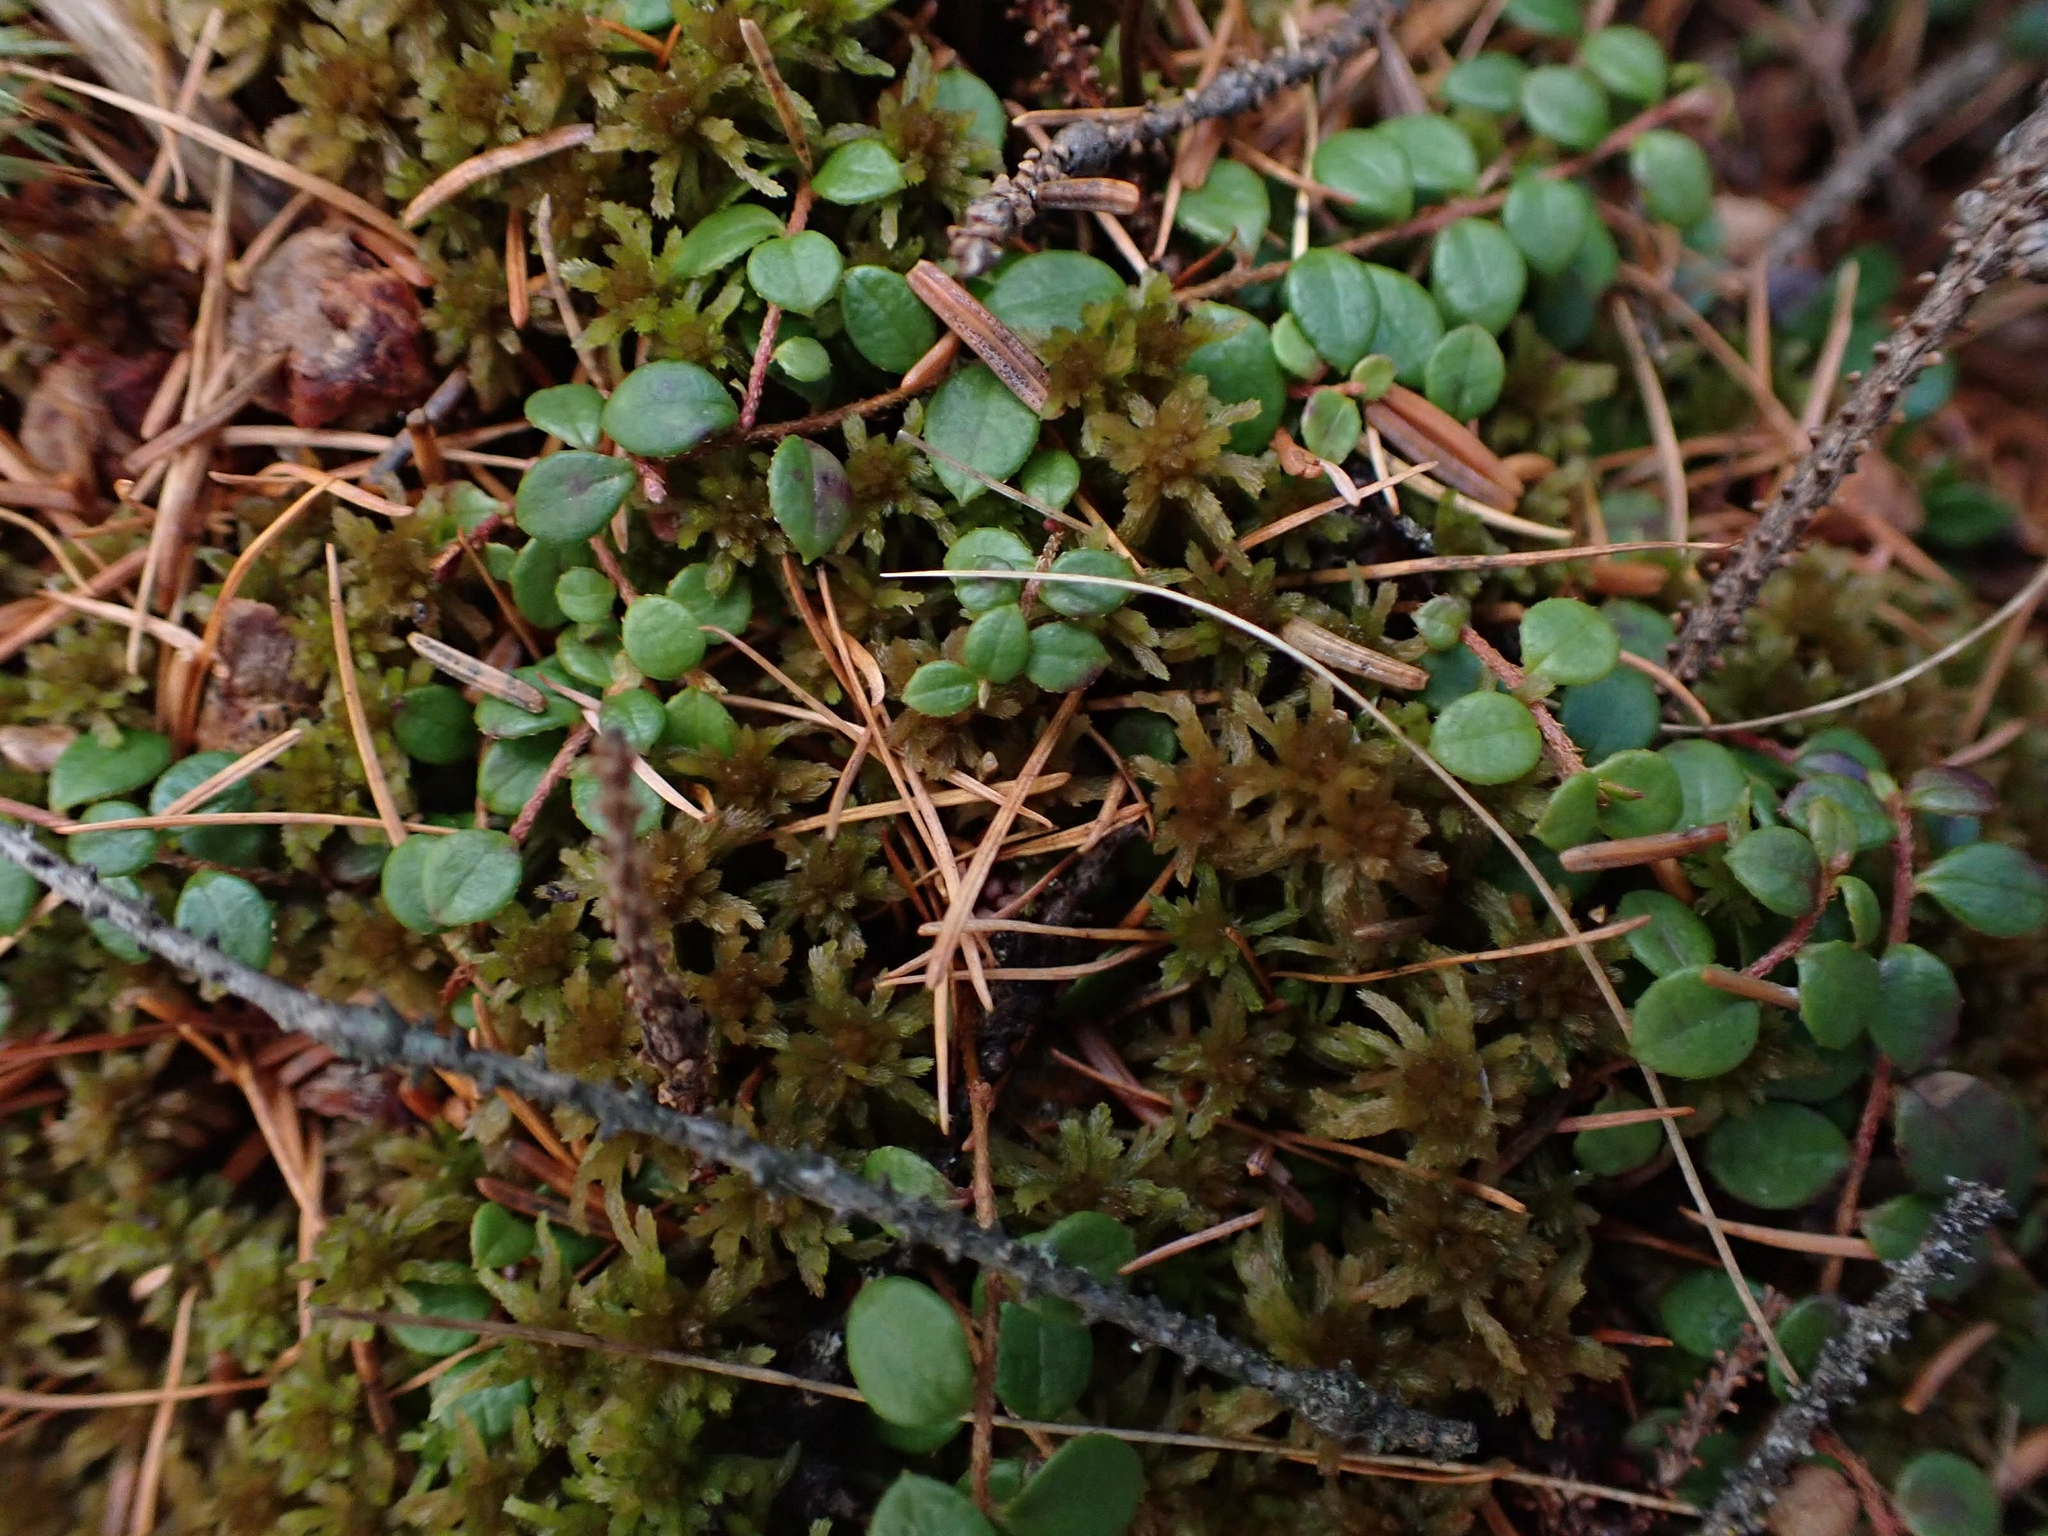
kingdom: Plantae
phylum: Tracheophyta
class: Magnoliopsida
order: Ericales
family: Ericaceae
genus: Gaultheria
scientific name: Gaultheria hispidula
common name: Cancer wintergreen
